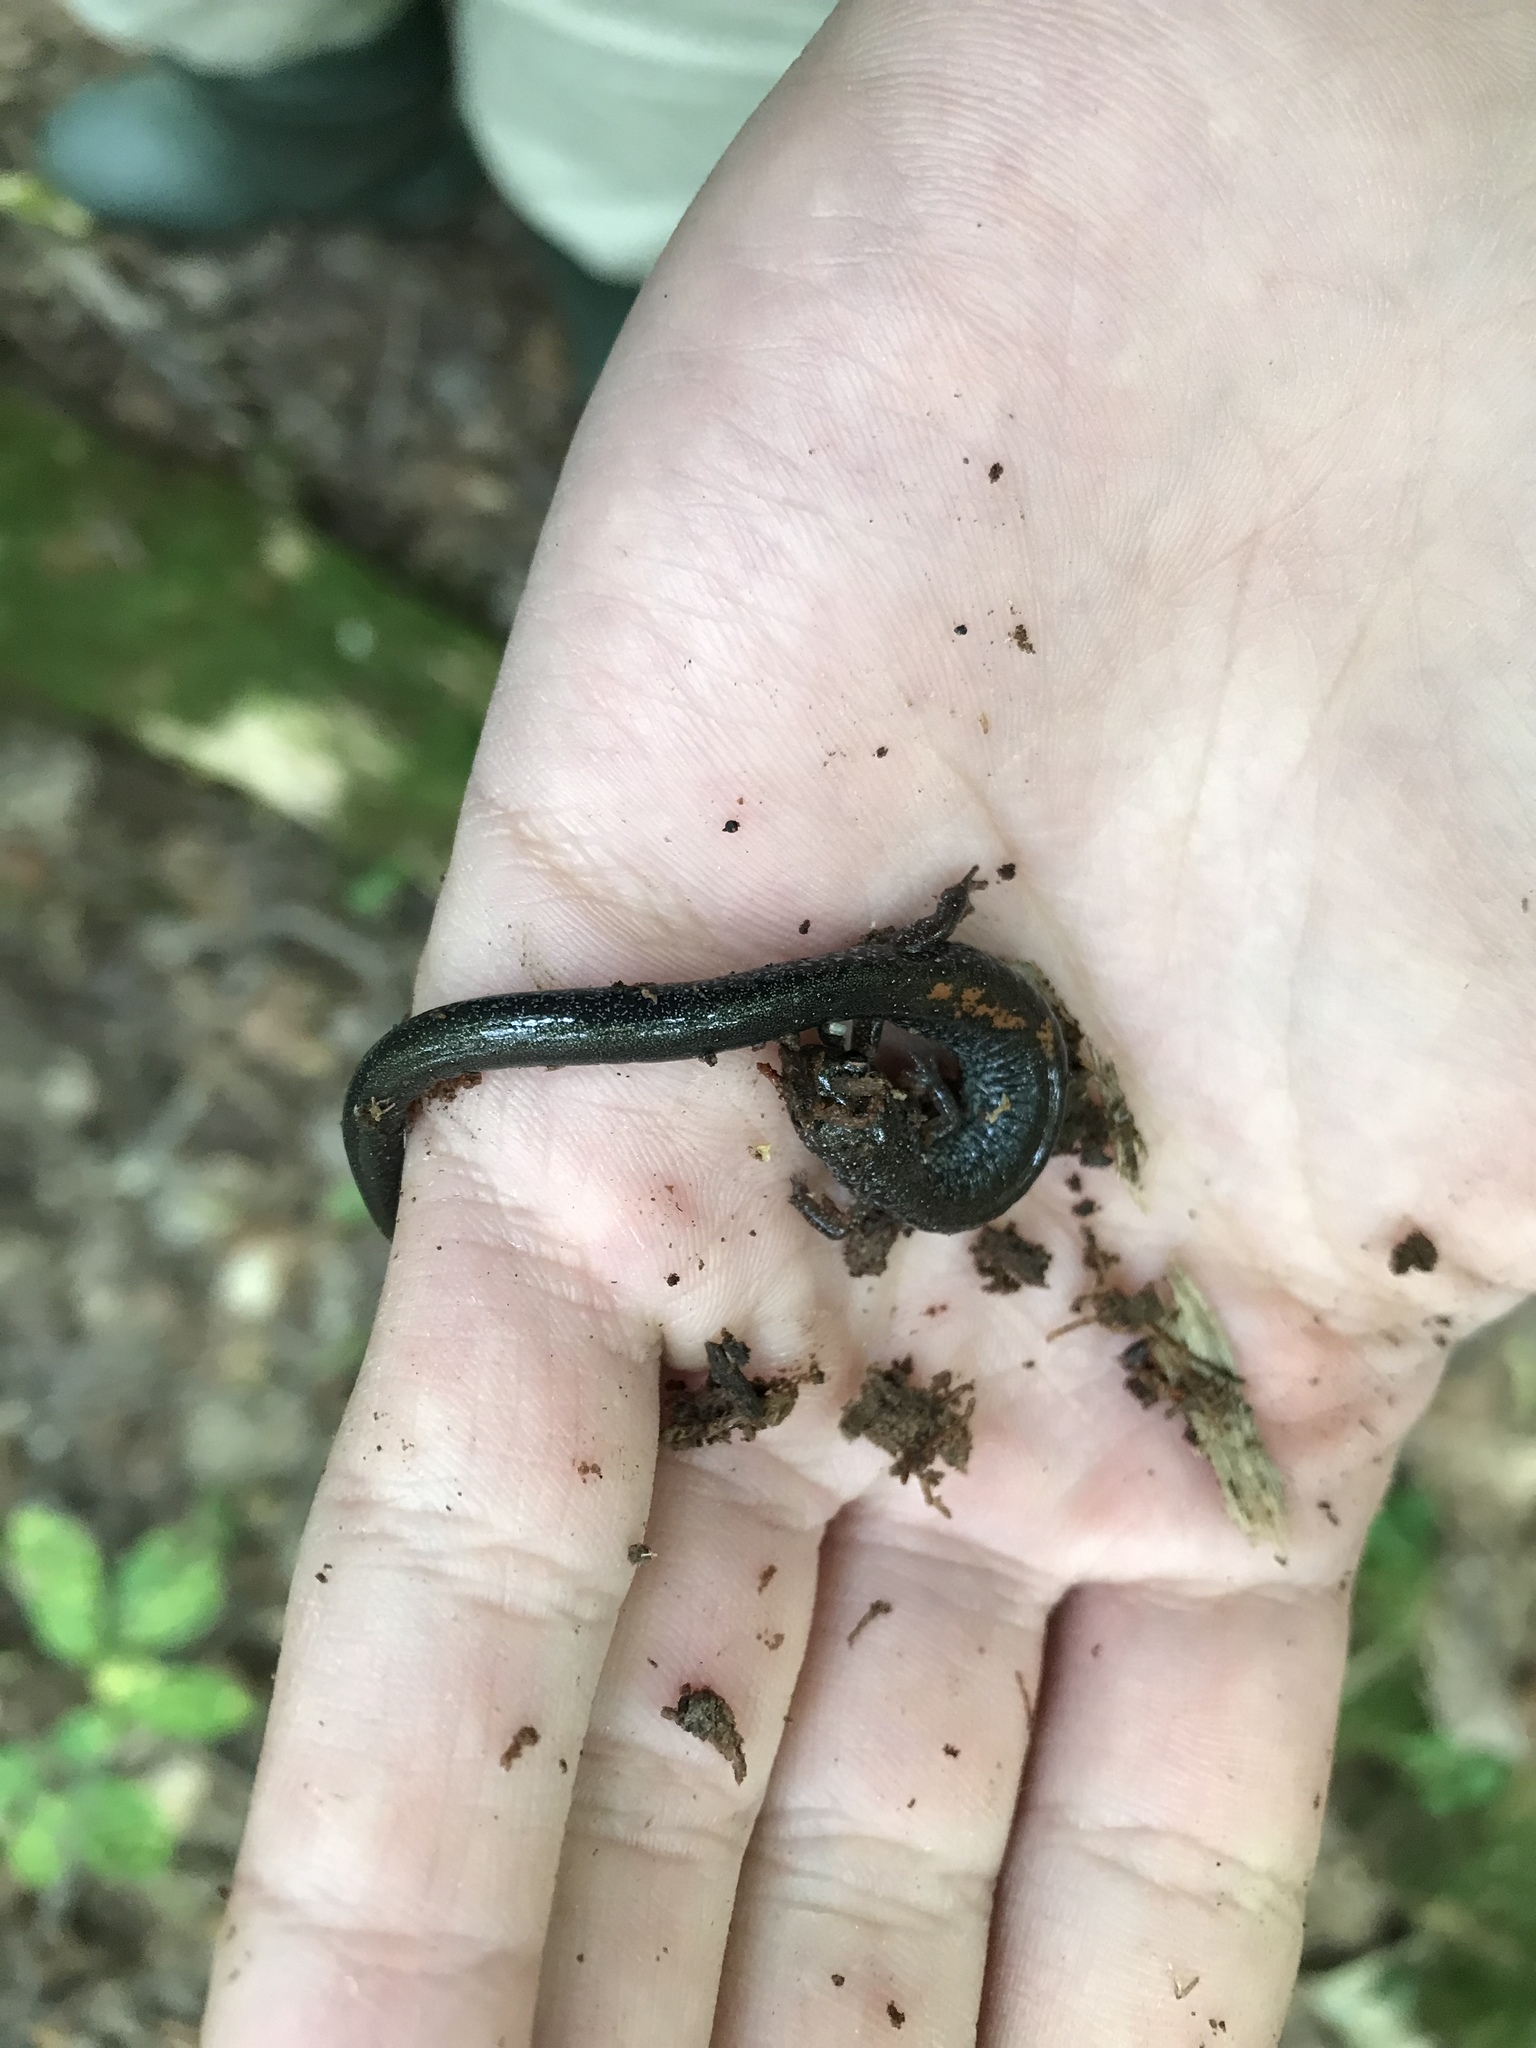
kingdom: Animalia
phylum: Chordata
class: Amphibia
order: Caudata
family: Plethodontidae
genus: Plethodon
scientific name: Plethodon cinereus
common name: Redback salamander
